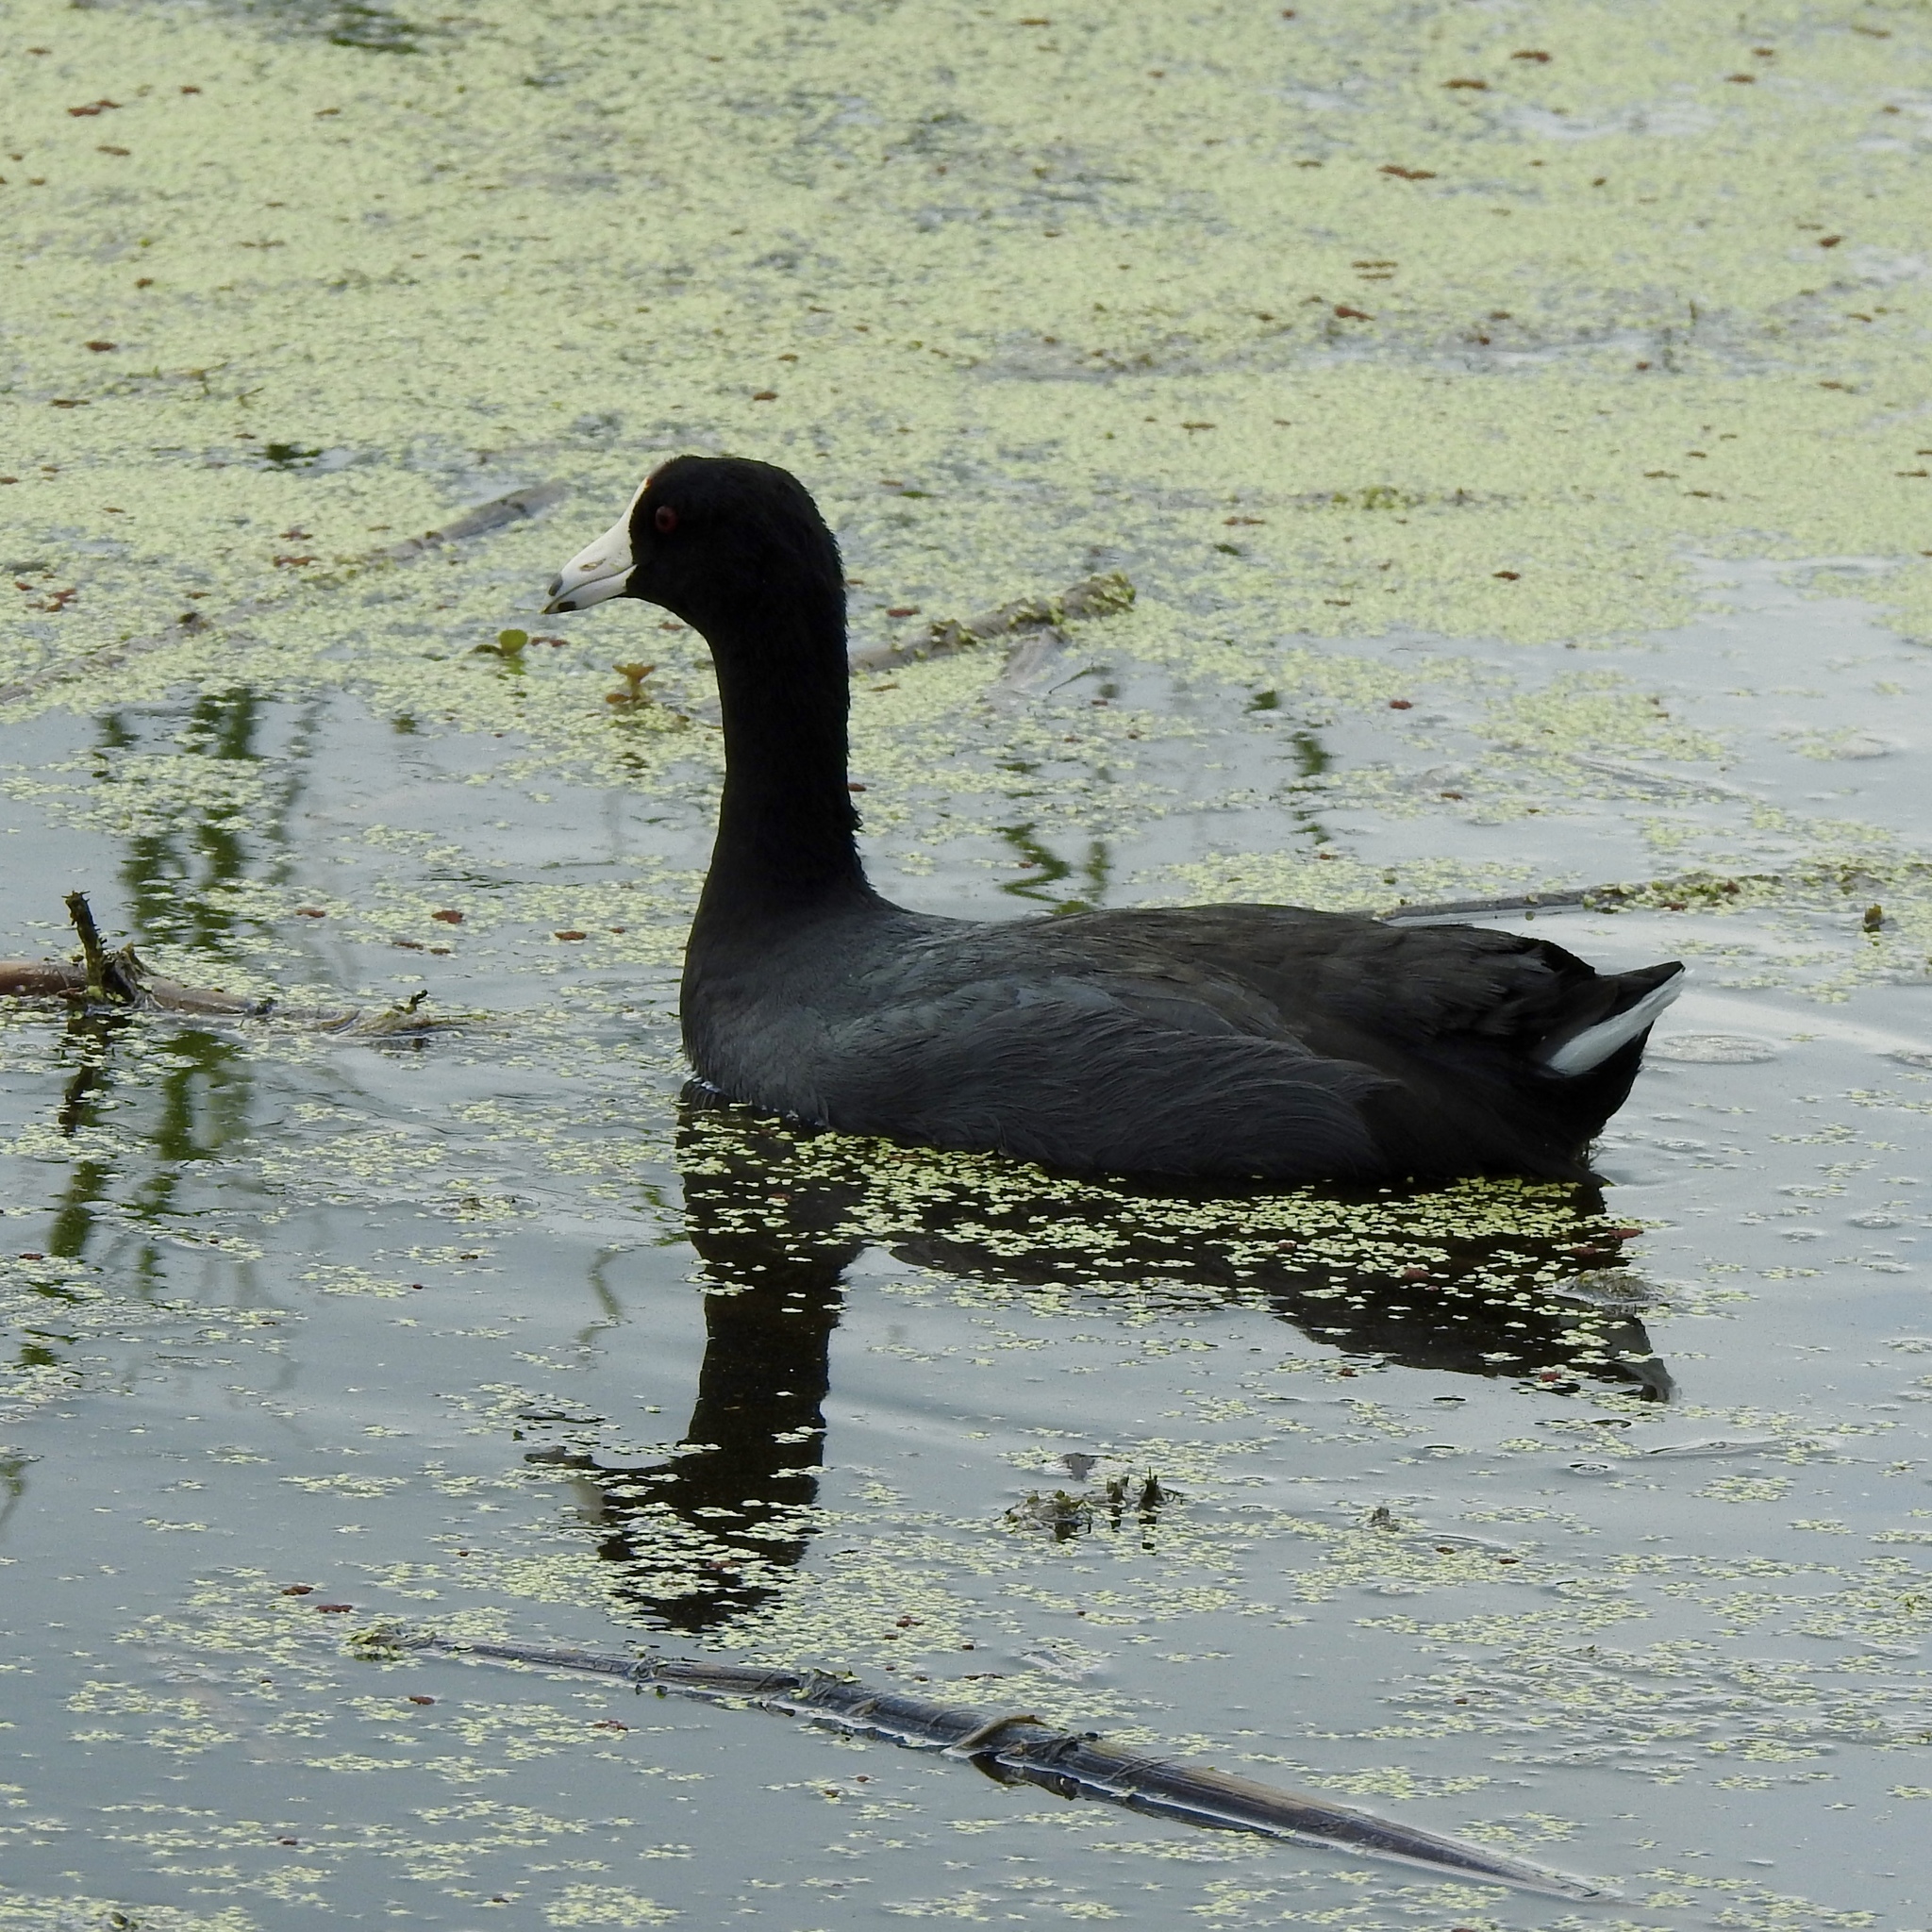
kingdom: Animalia
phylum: Chordata
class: Aves
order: Gruiformes
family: Rallidae
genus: Fulica
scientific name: Fulica americana
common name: American coot
